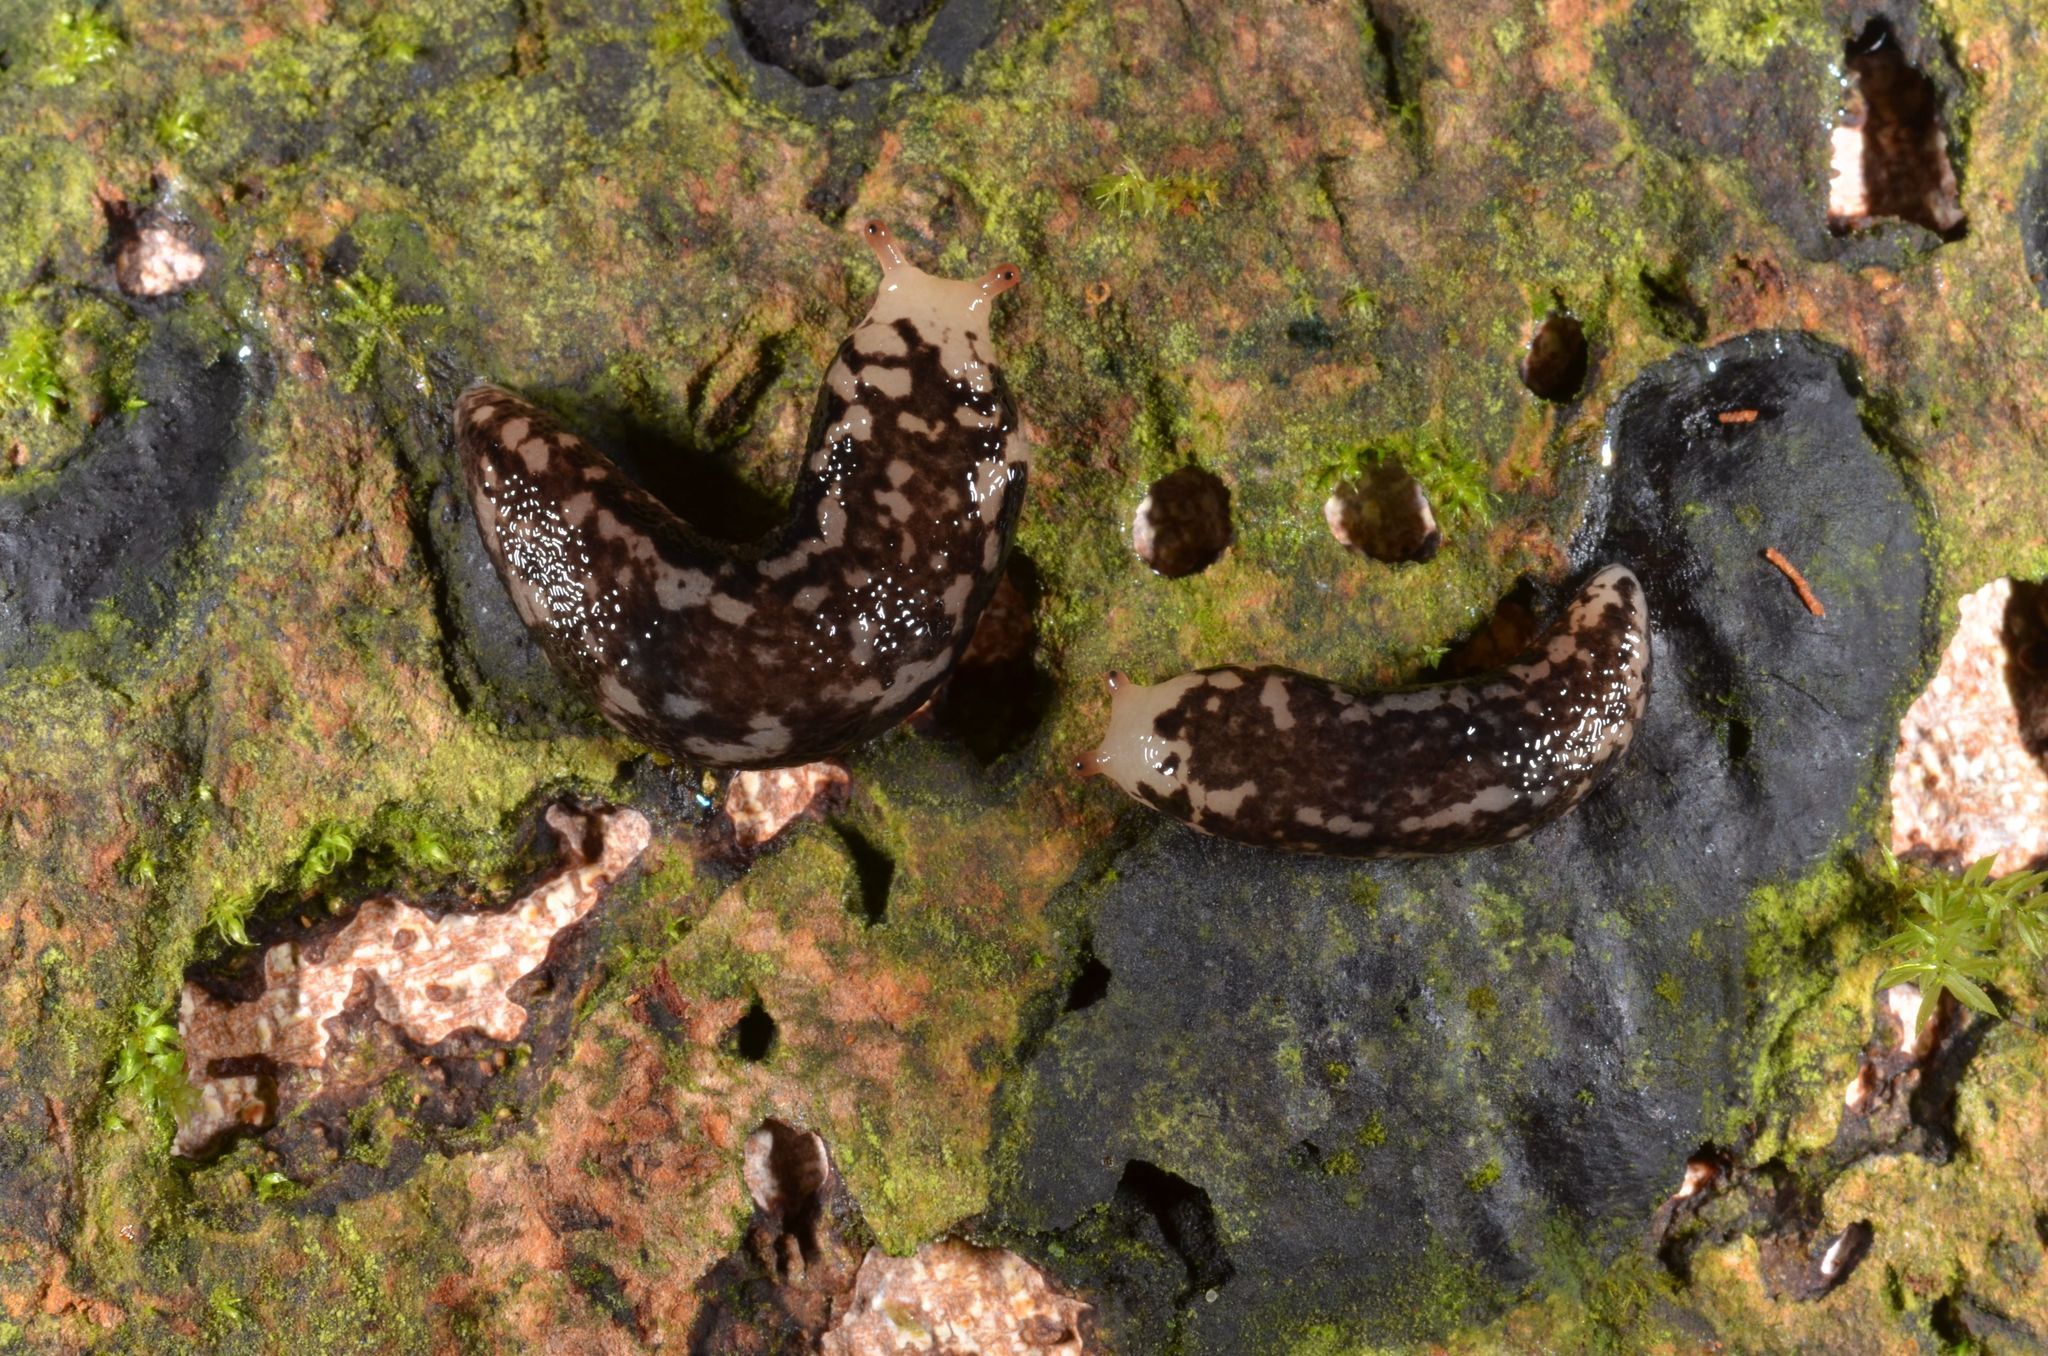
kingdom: Animalia
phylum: Mollusca
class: Gastropoda
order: Stylommatophora
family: Philomycidae
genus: Meghimatium
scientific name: Meghimatium pictum
